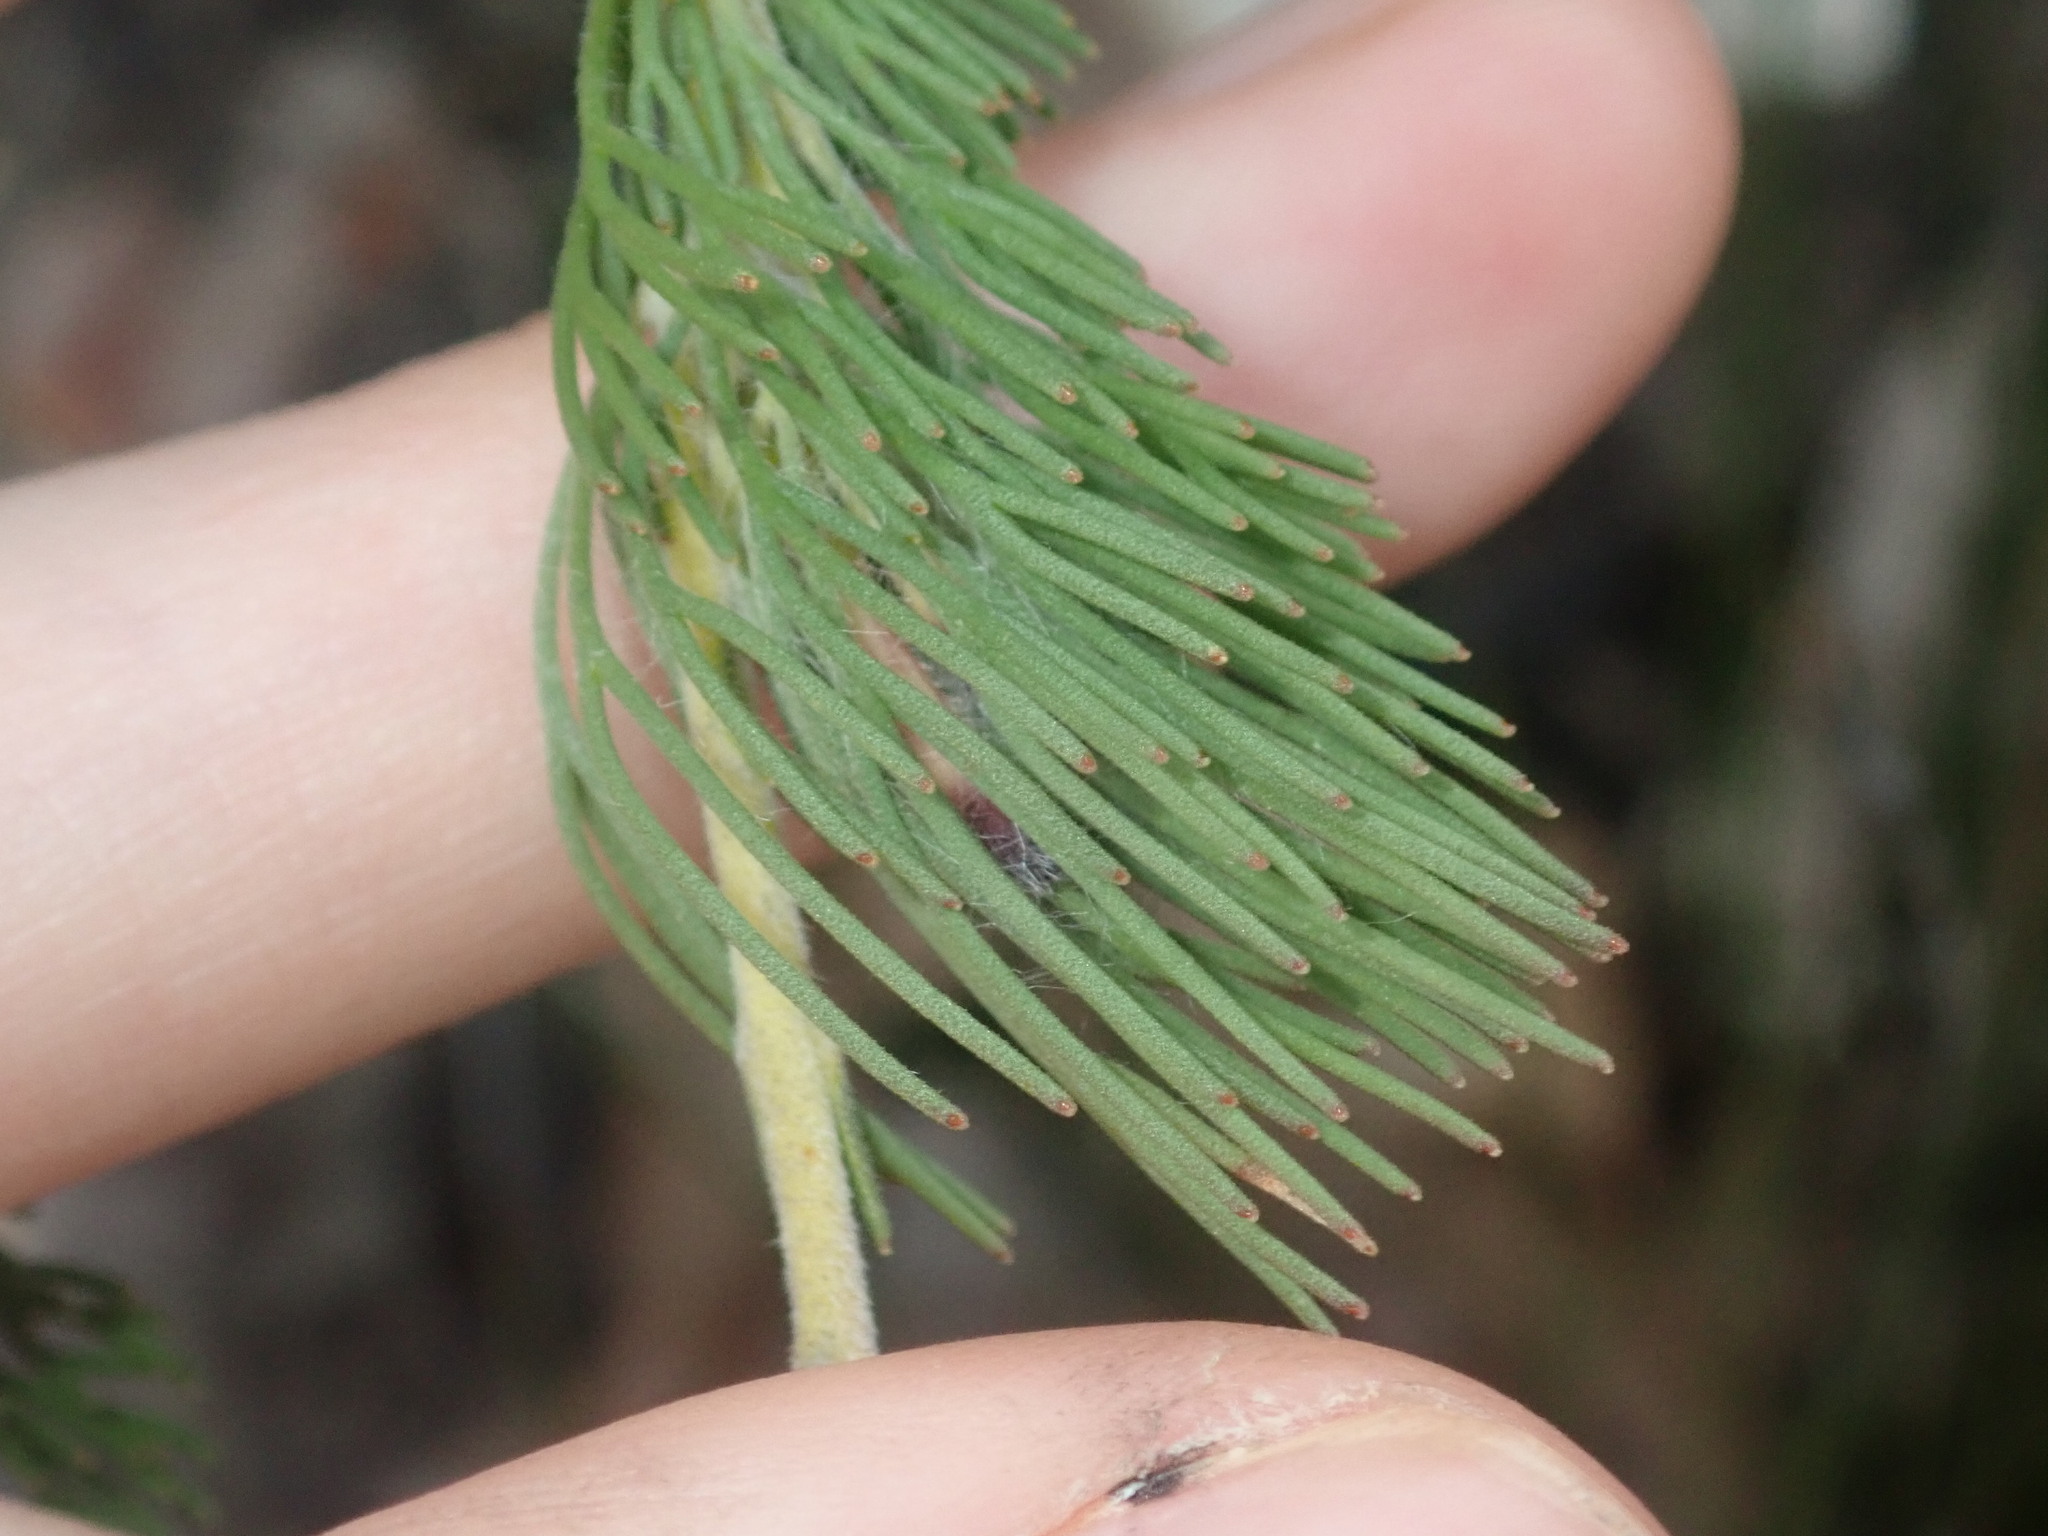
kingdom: Plantae
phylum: Tracheophyta
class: Magnoliopsida
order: Proteales
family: Proteaceae
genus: Adenanthos
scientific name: Adenanthos filifolius
